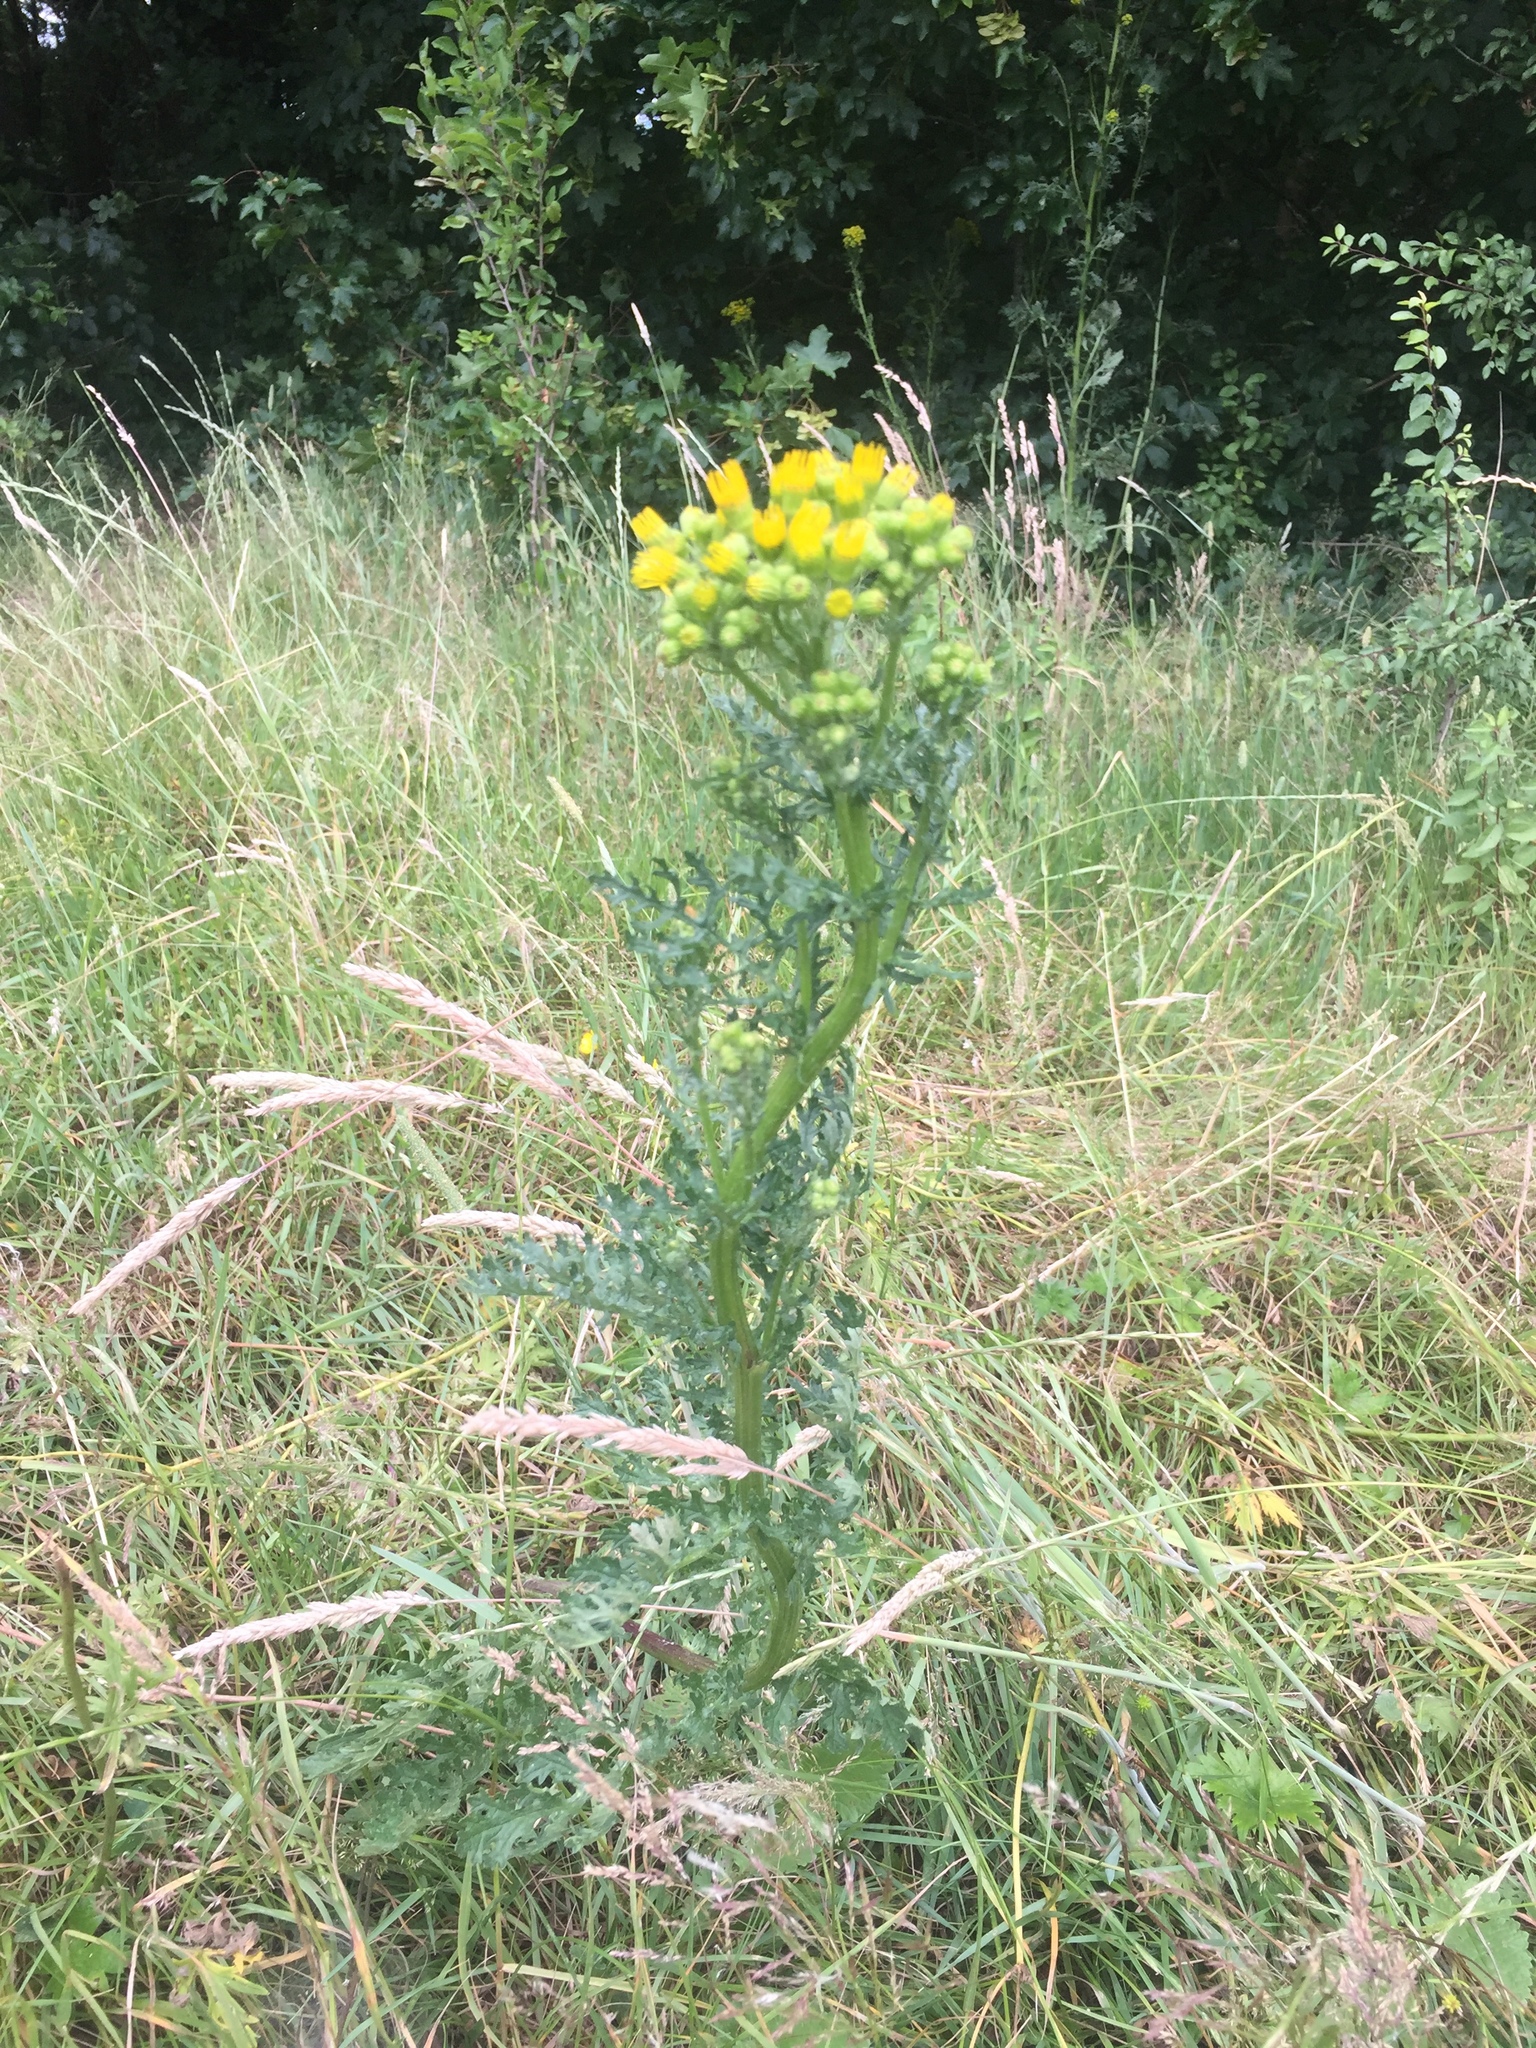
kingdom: Plantae
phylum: Tracheophyta
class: Magnoliopsida
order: Asterales
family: Asteraceae
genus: Jacobaea
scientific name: Jacobaea vulgaris
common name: Stinking willie
